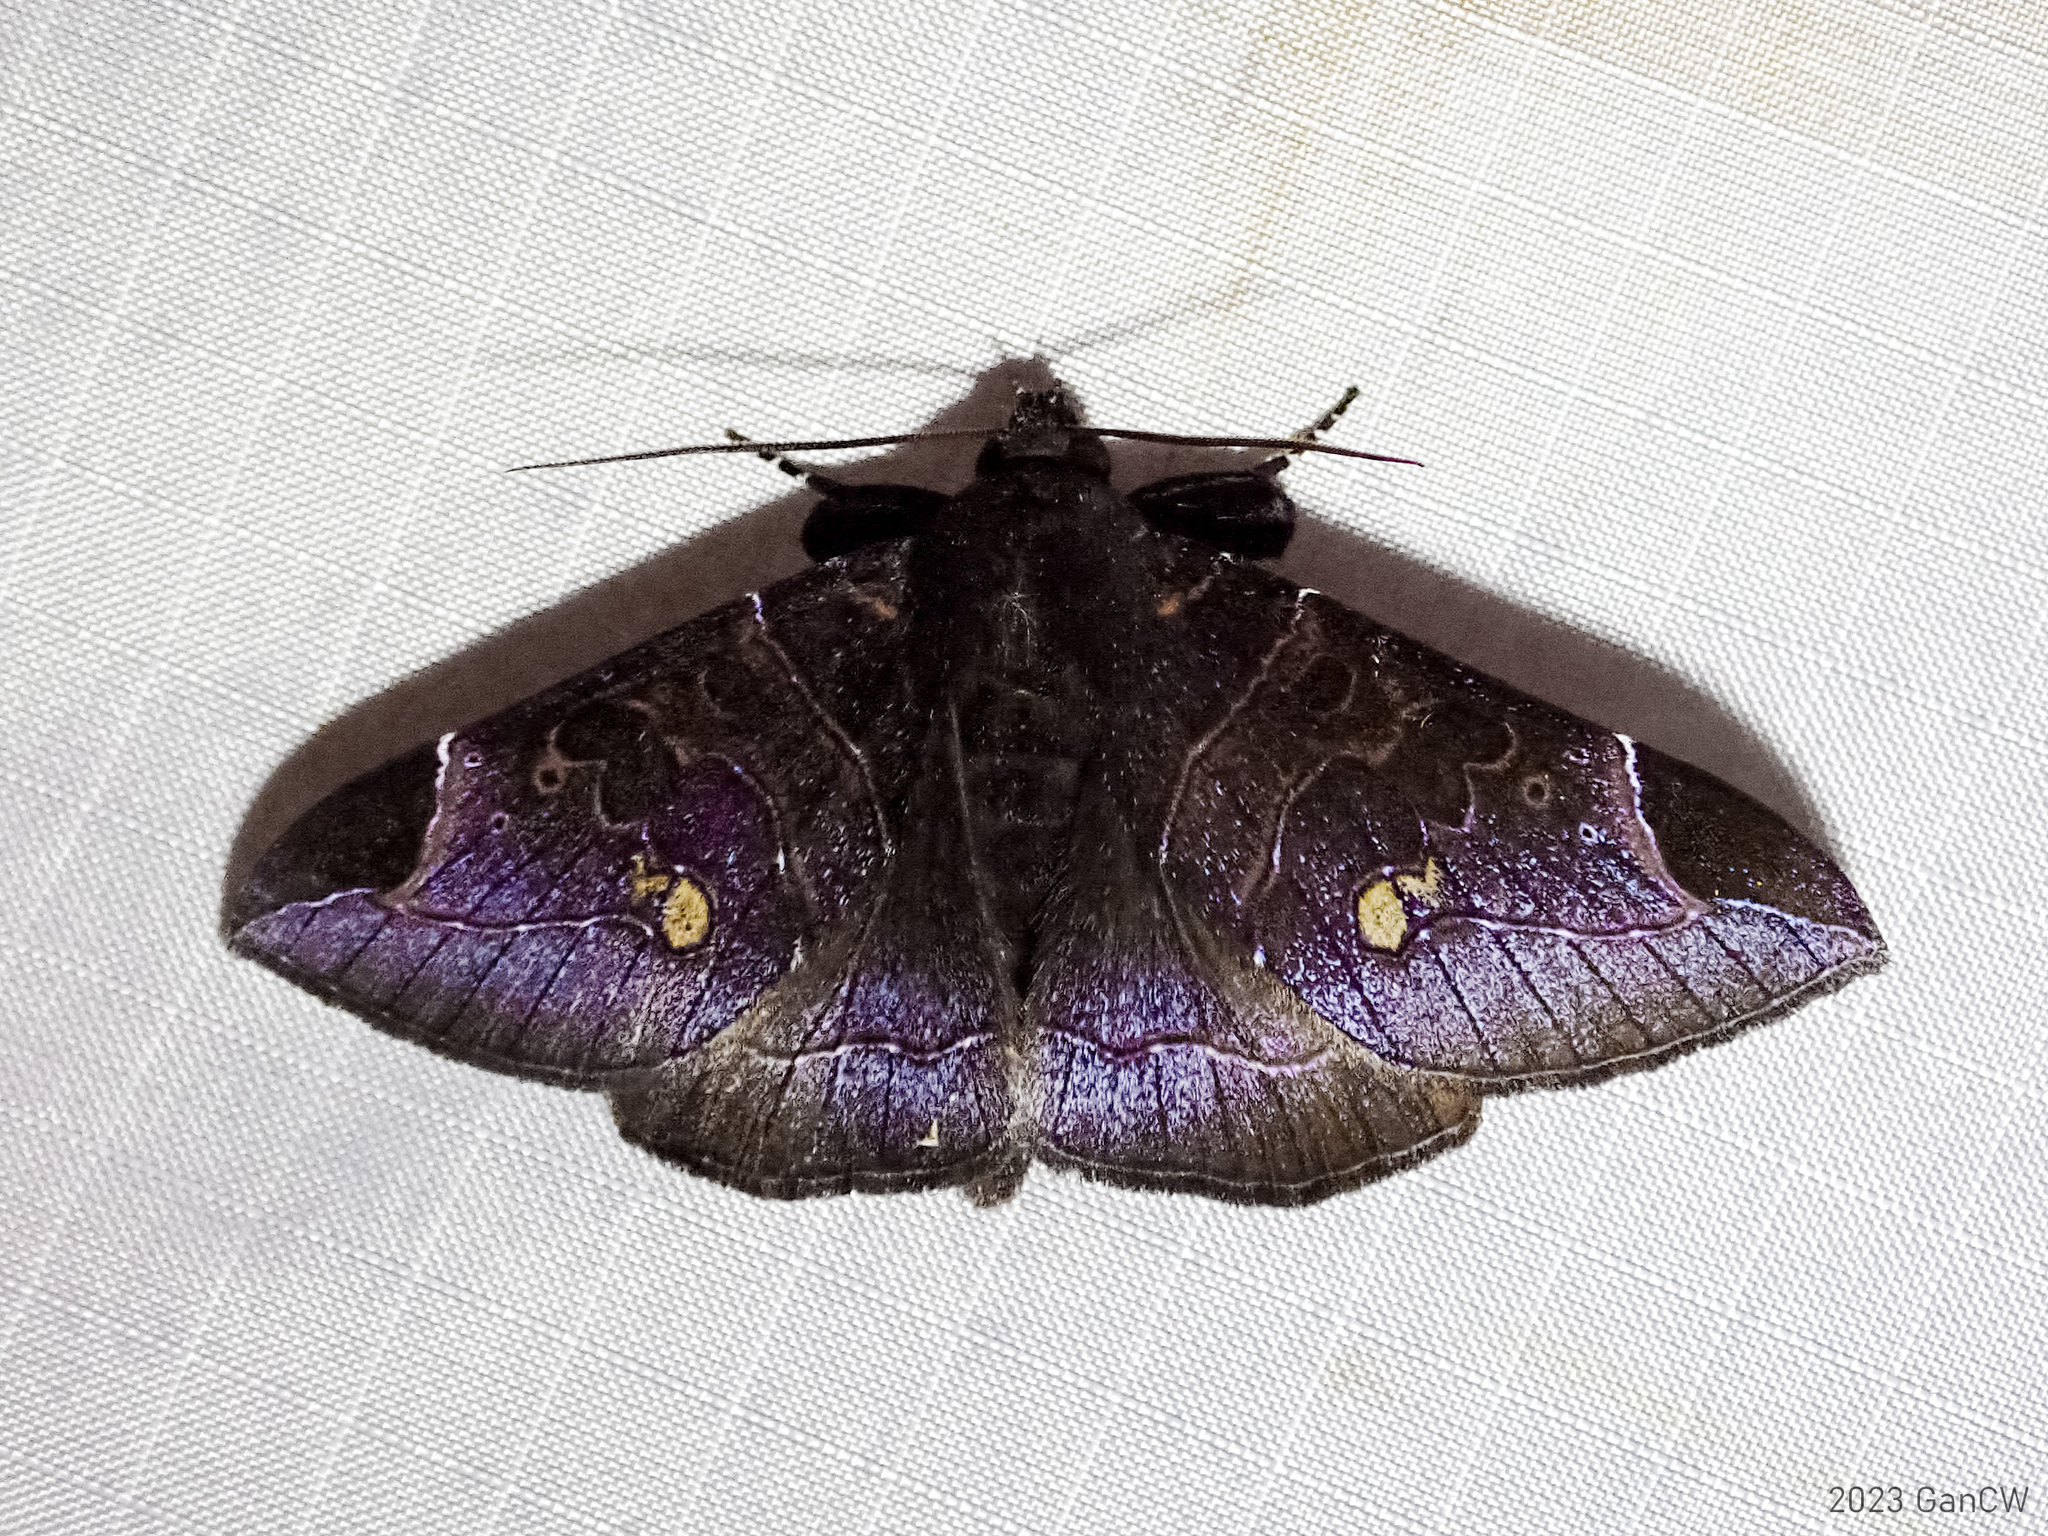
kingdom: Animalia
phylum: Arthropoda
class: Insecta
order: Lepidoptera
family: Erebidae
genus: Platyja
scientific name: Platyja torsilinea
